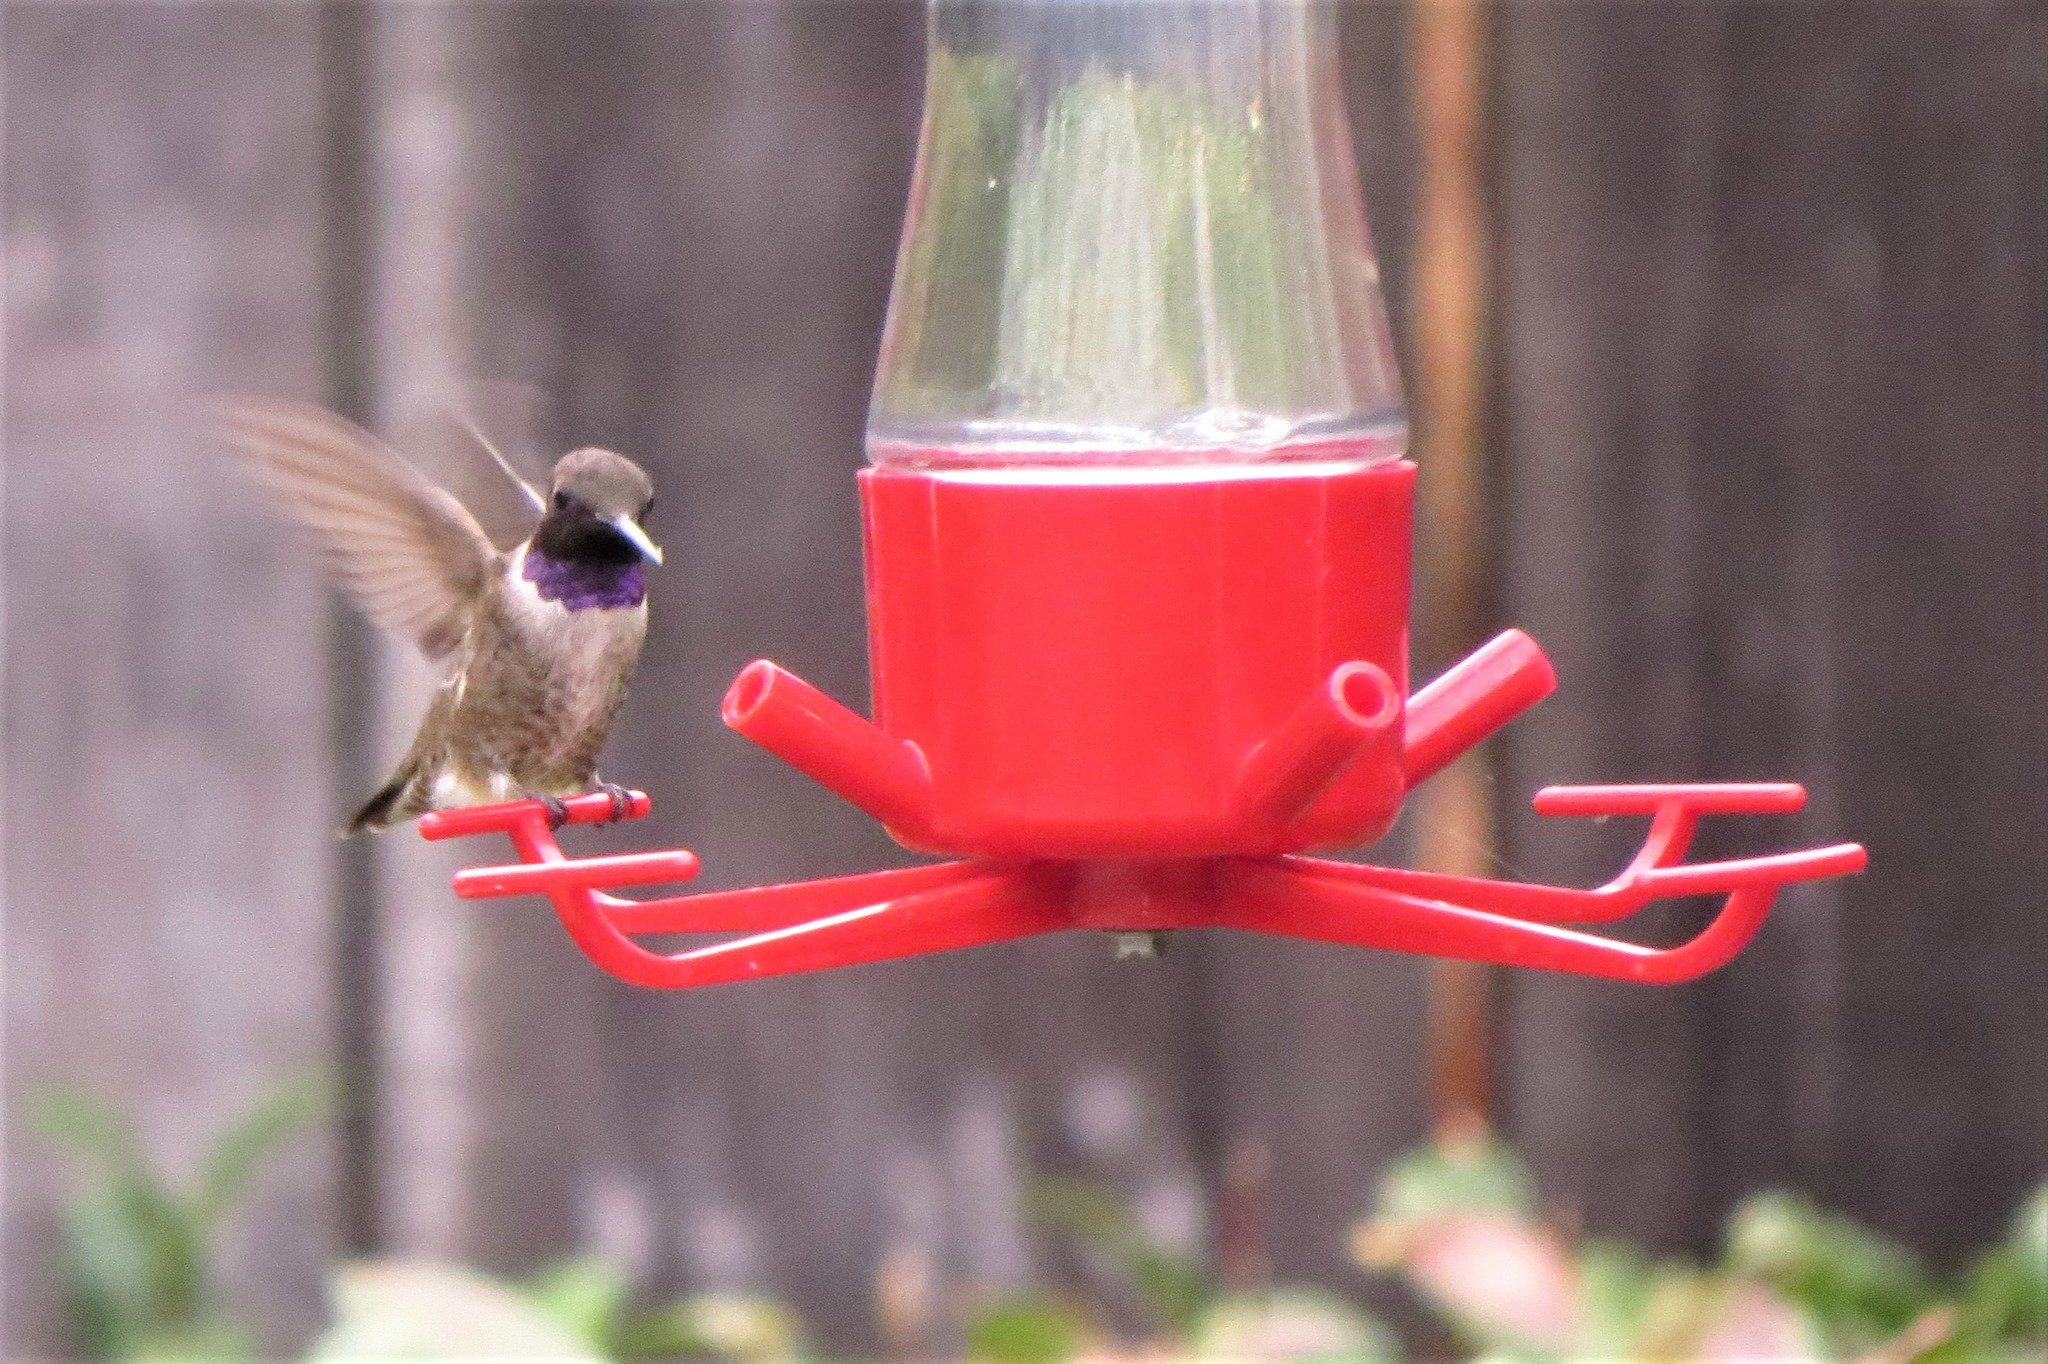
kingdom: Animalia
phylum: Chordata
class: Aves
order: Apodiformes
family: Trochilidae
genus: Archilochus
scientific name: Archilochus alexandri
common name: Black-chinned hummingbird
